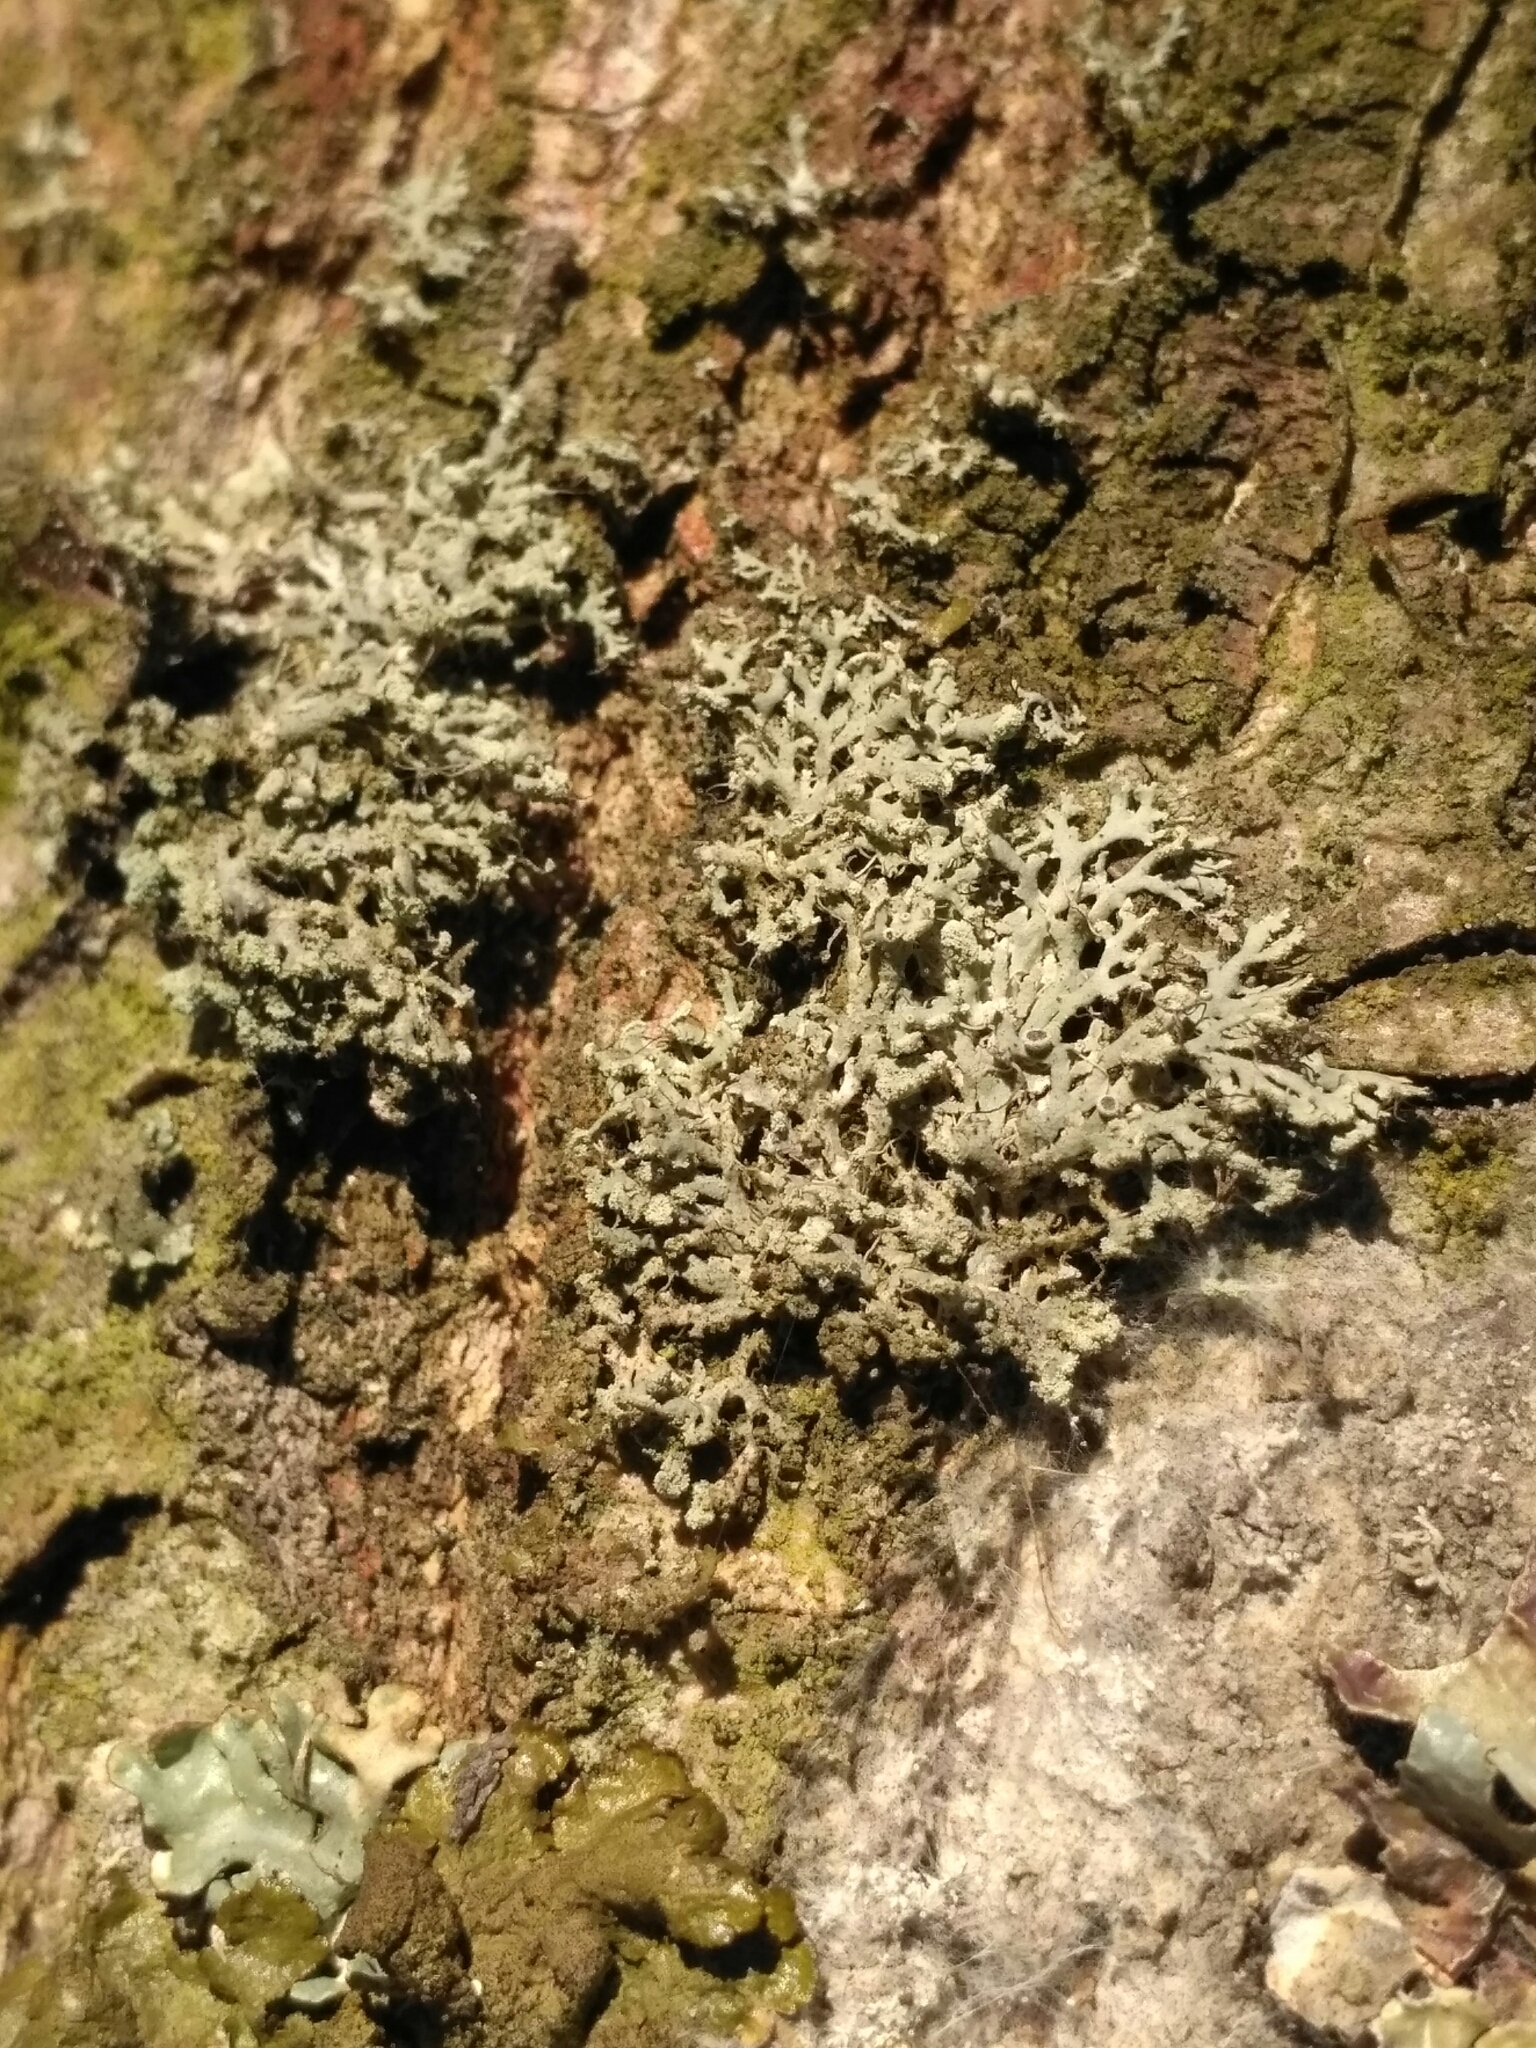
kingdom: Fungi
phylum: Ascomycota
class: Lecanoromycetes
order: Caliciales
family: Physciaceae
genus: Physcia
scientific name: Physcia tenella
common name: Fringed rosette lichen
